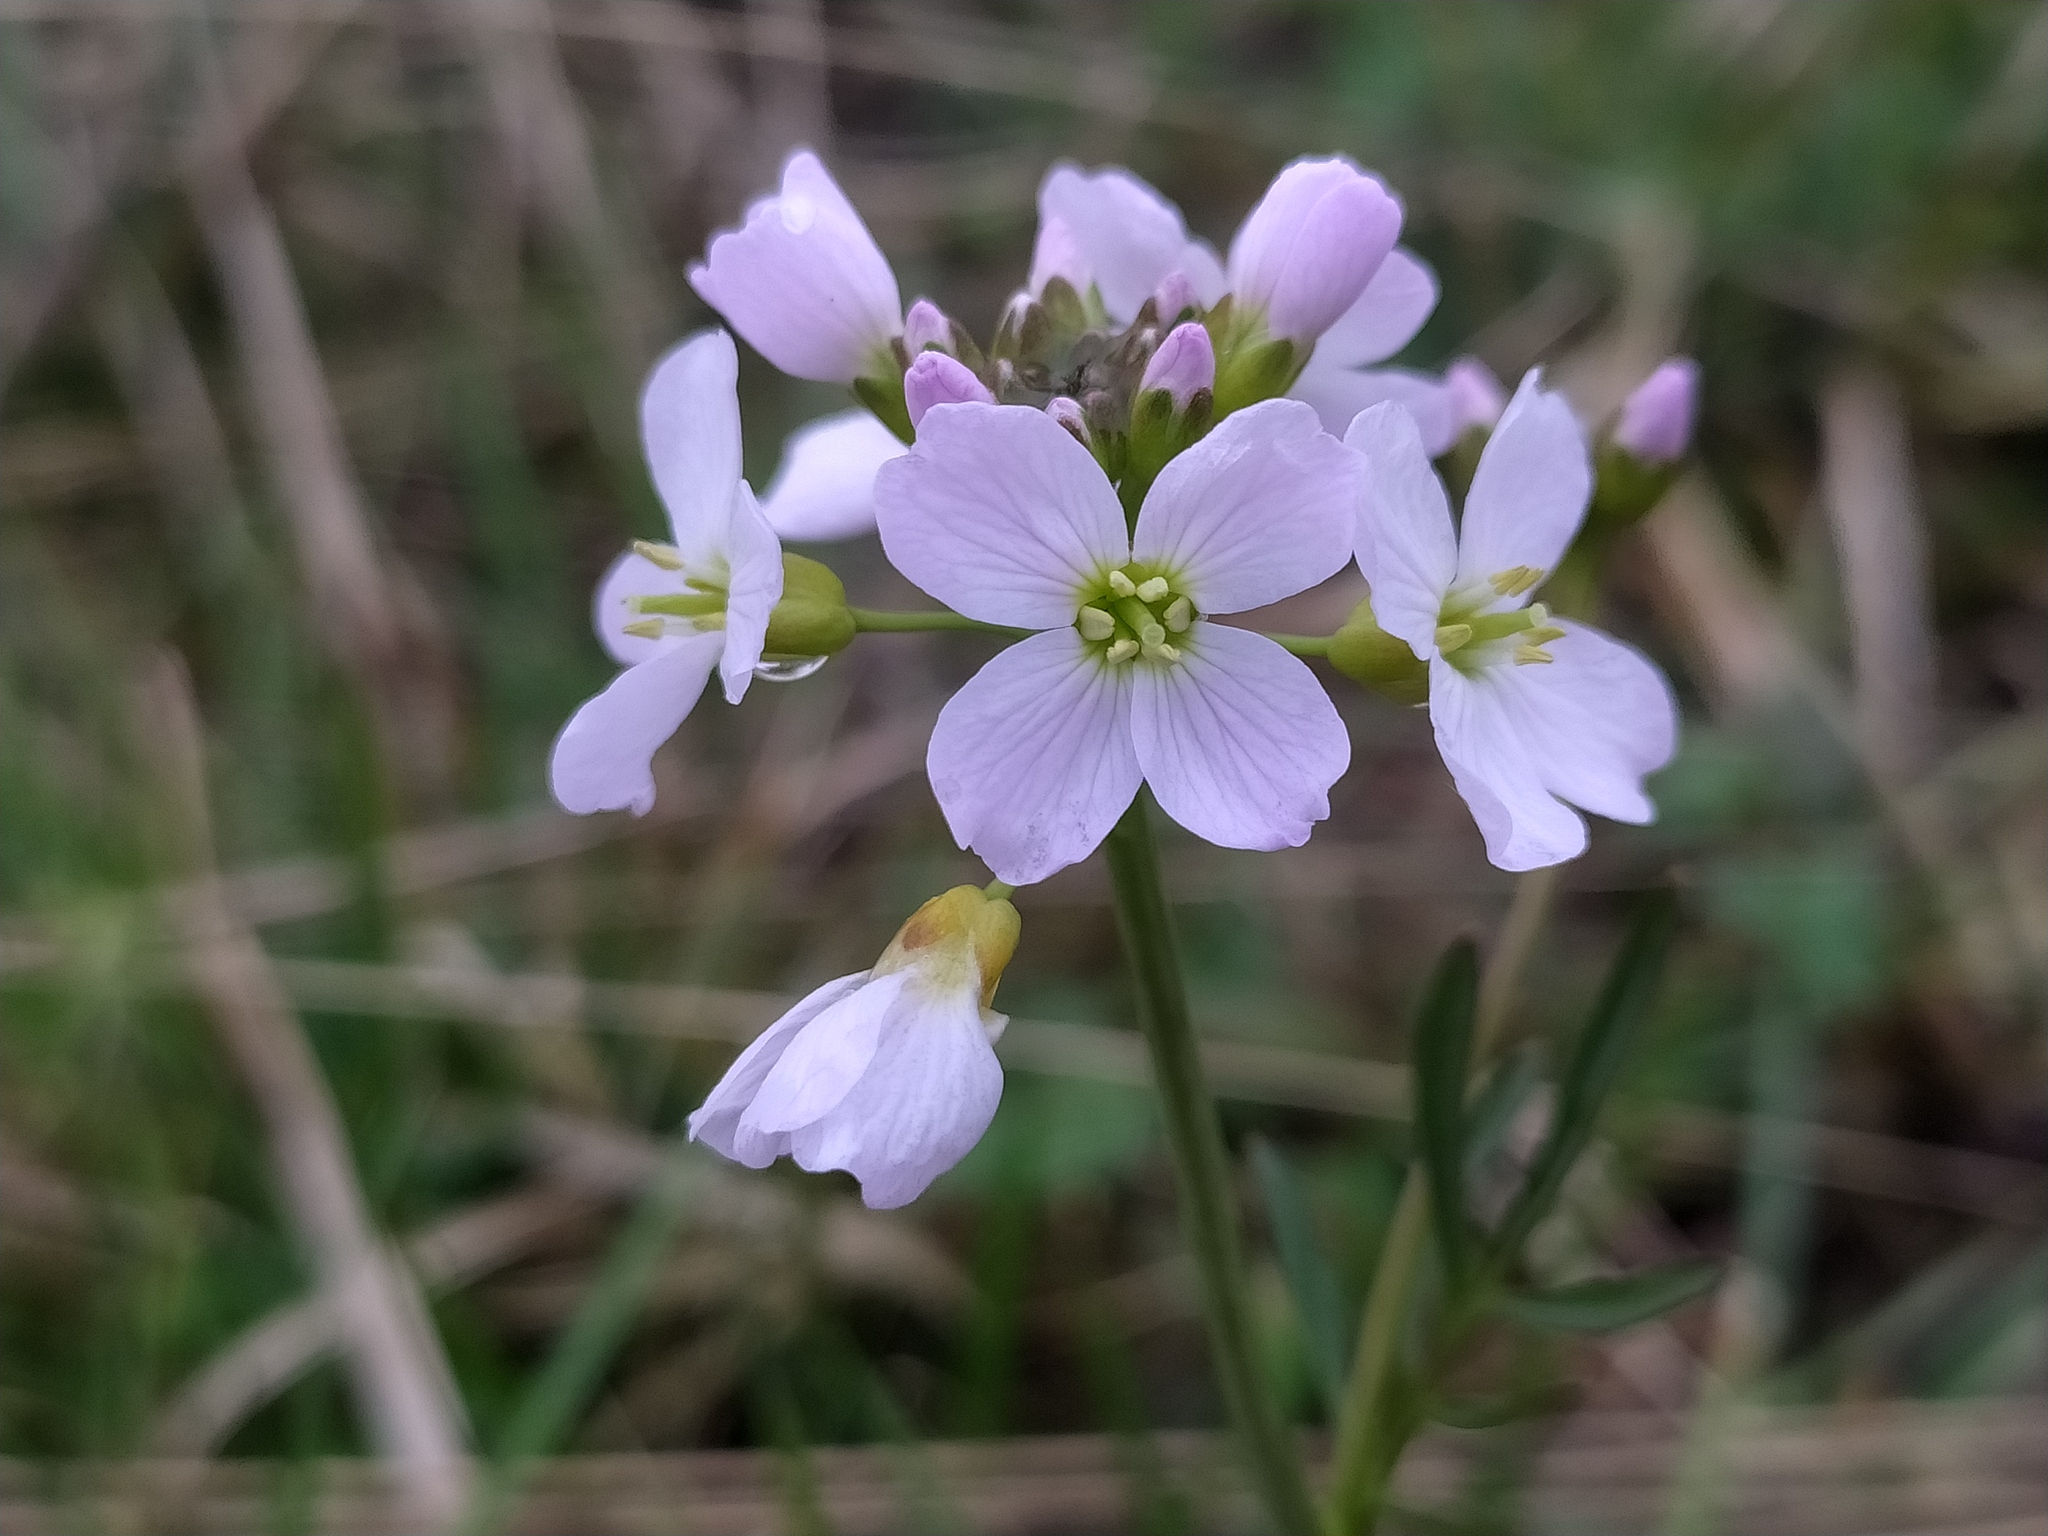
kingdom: Plantae
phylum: Tracheophyta
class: Magnoliopsida
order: Brassicales
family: Brassicaceae
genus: Cardamine
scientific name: Cardamine pratensis
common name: Cuckoo flower
